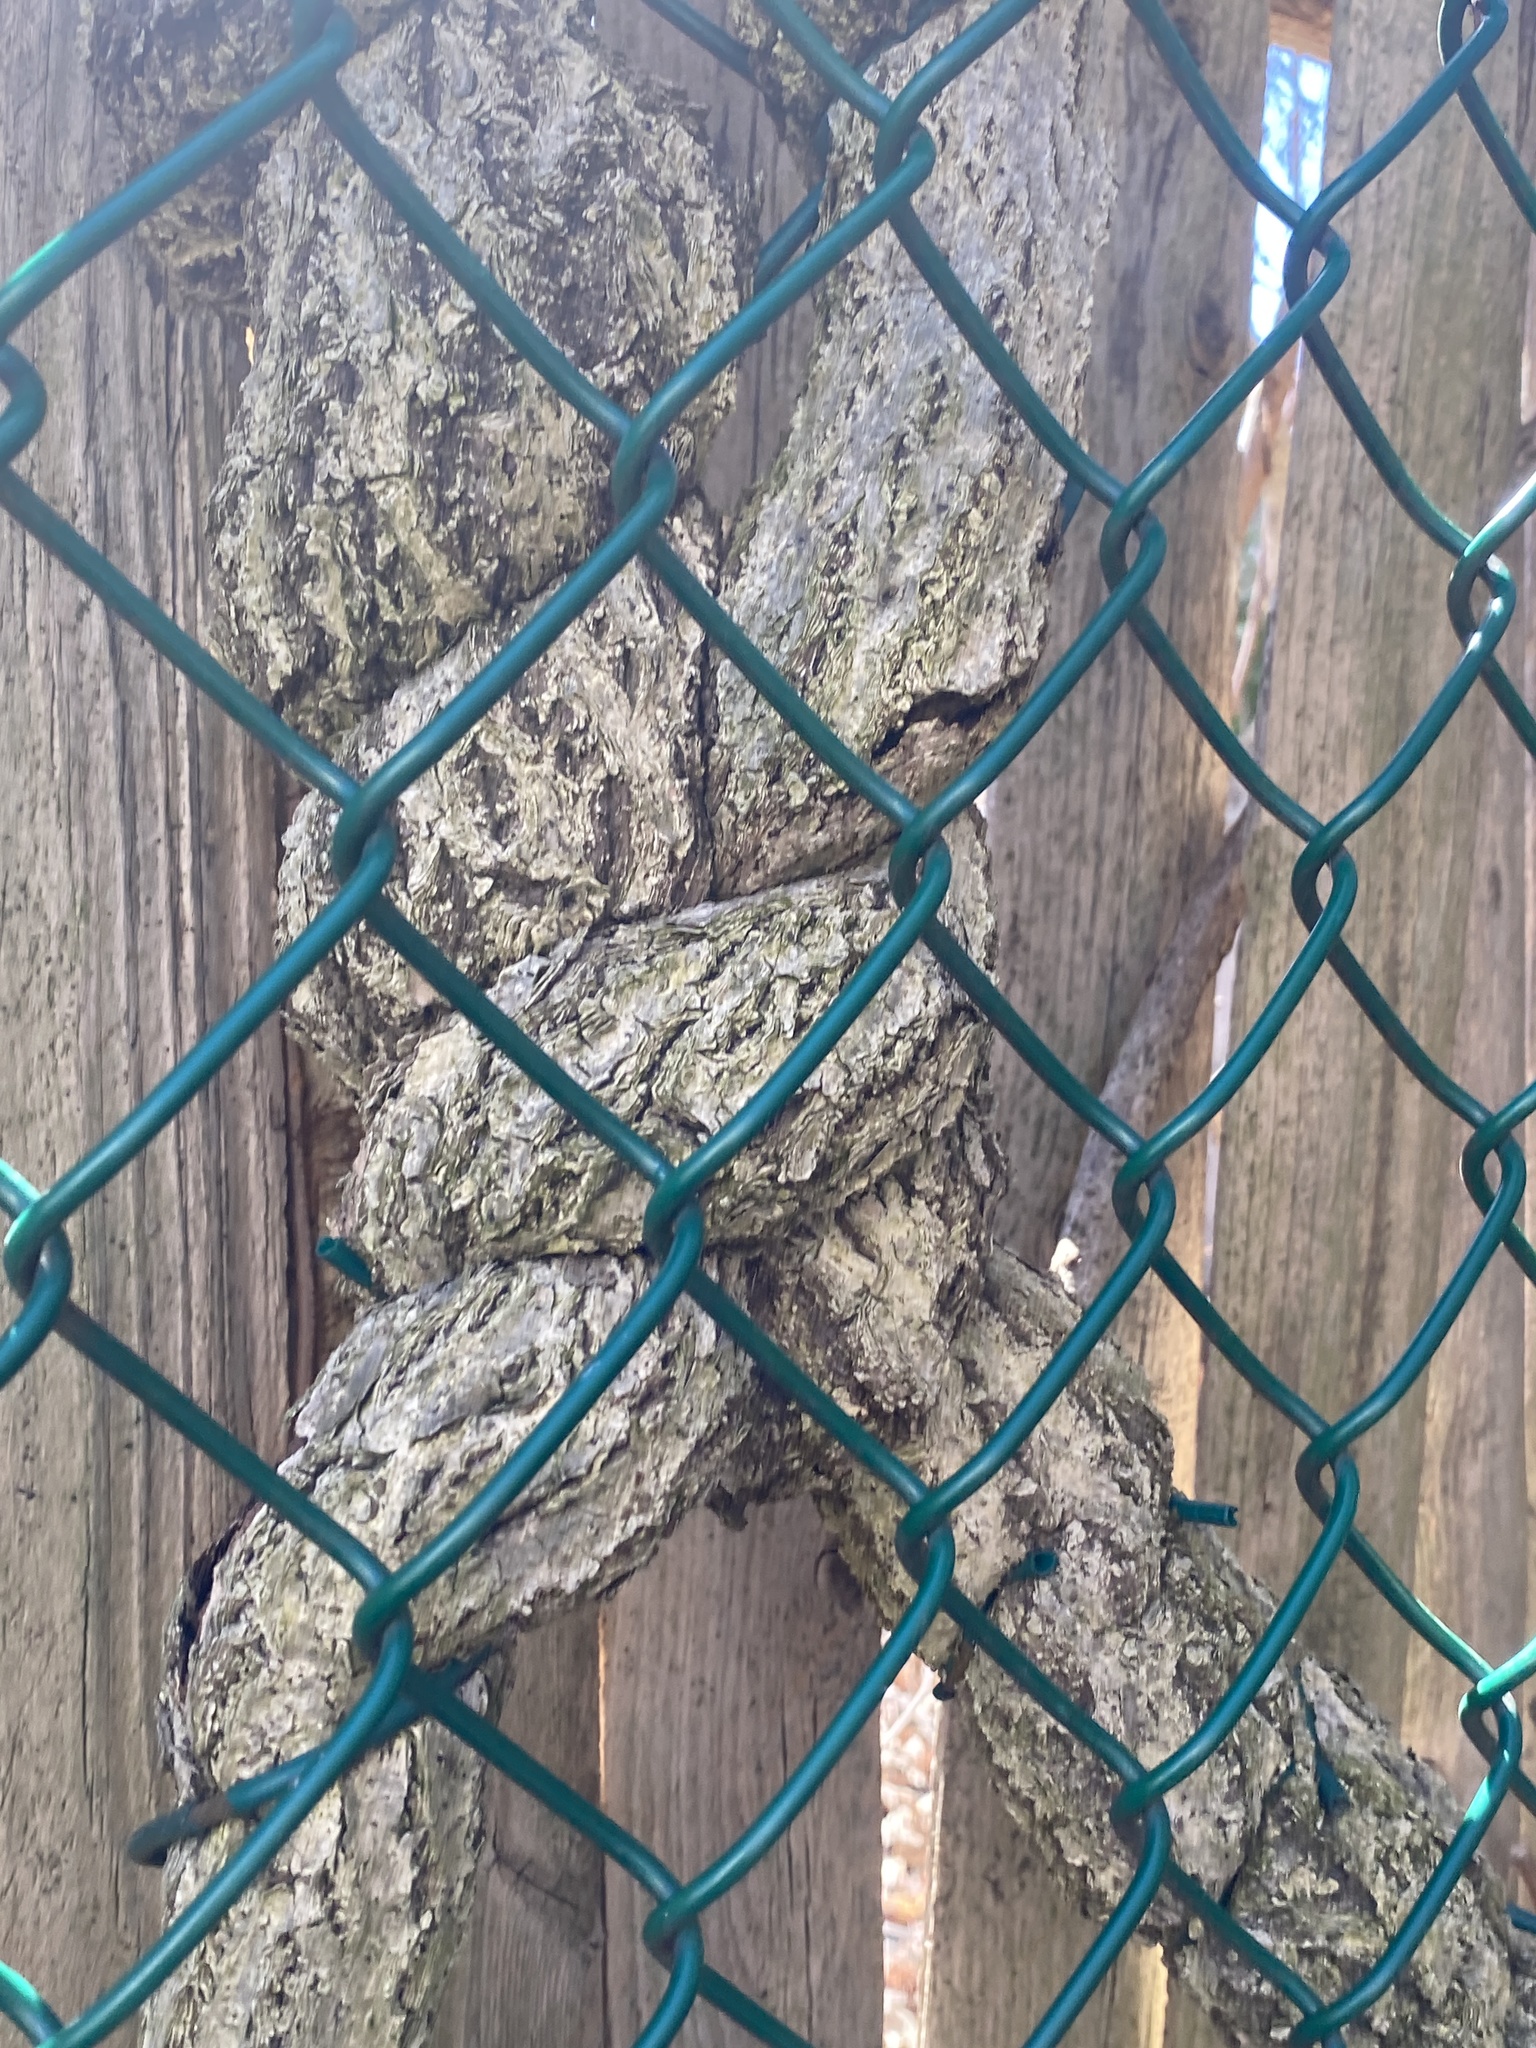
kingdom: Plantae
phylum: Tracheophyta
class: Magnoliopsida
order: Celastrales
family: Celastraceae
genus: Celastrus
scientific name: Celastrus orbiculatus
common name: Oriental bittersweet
